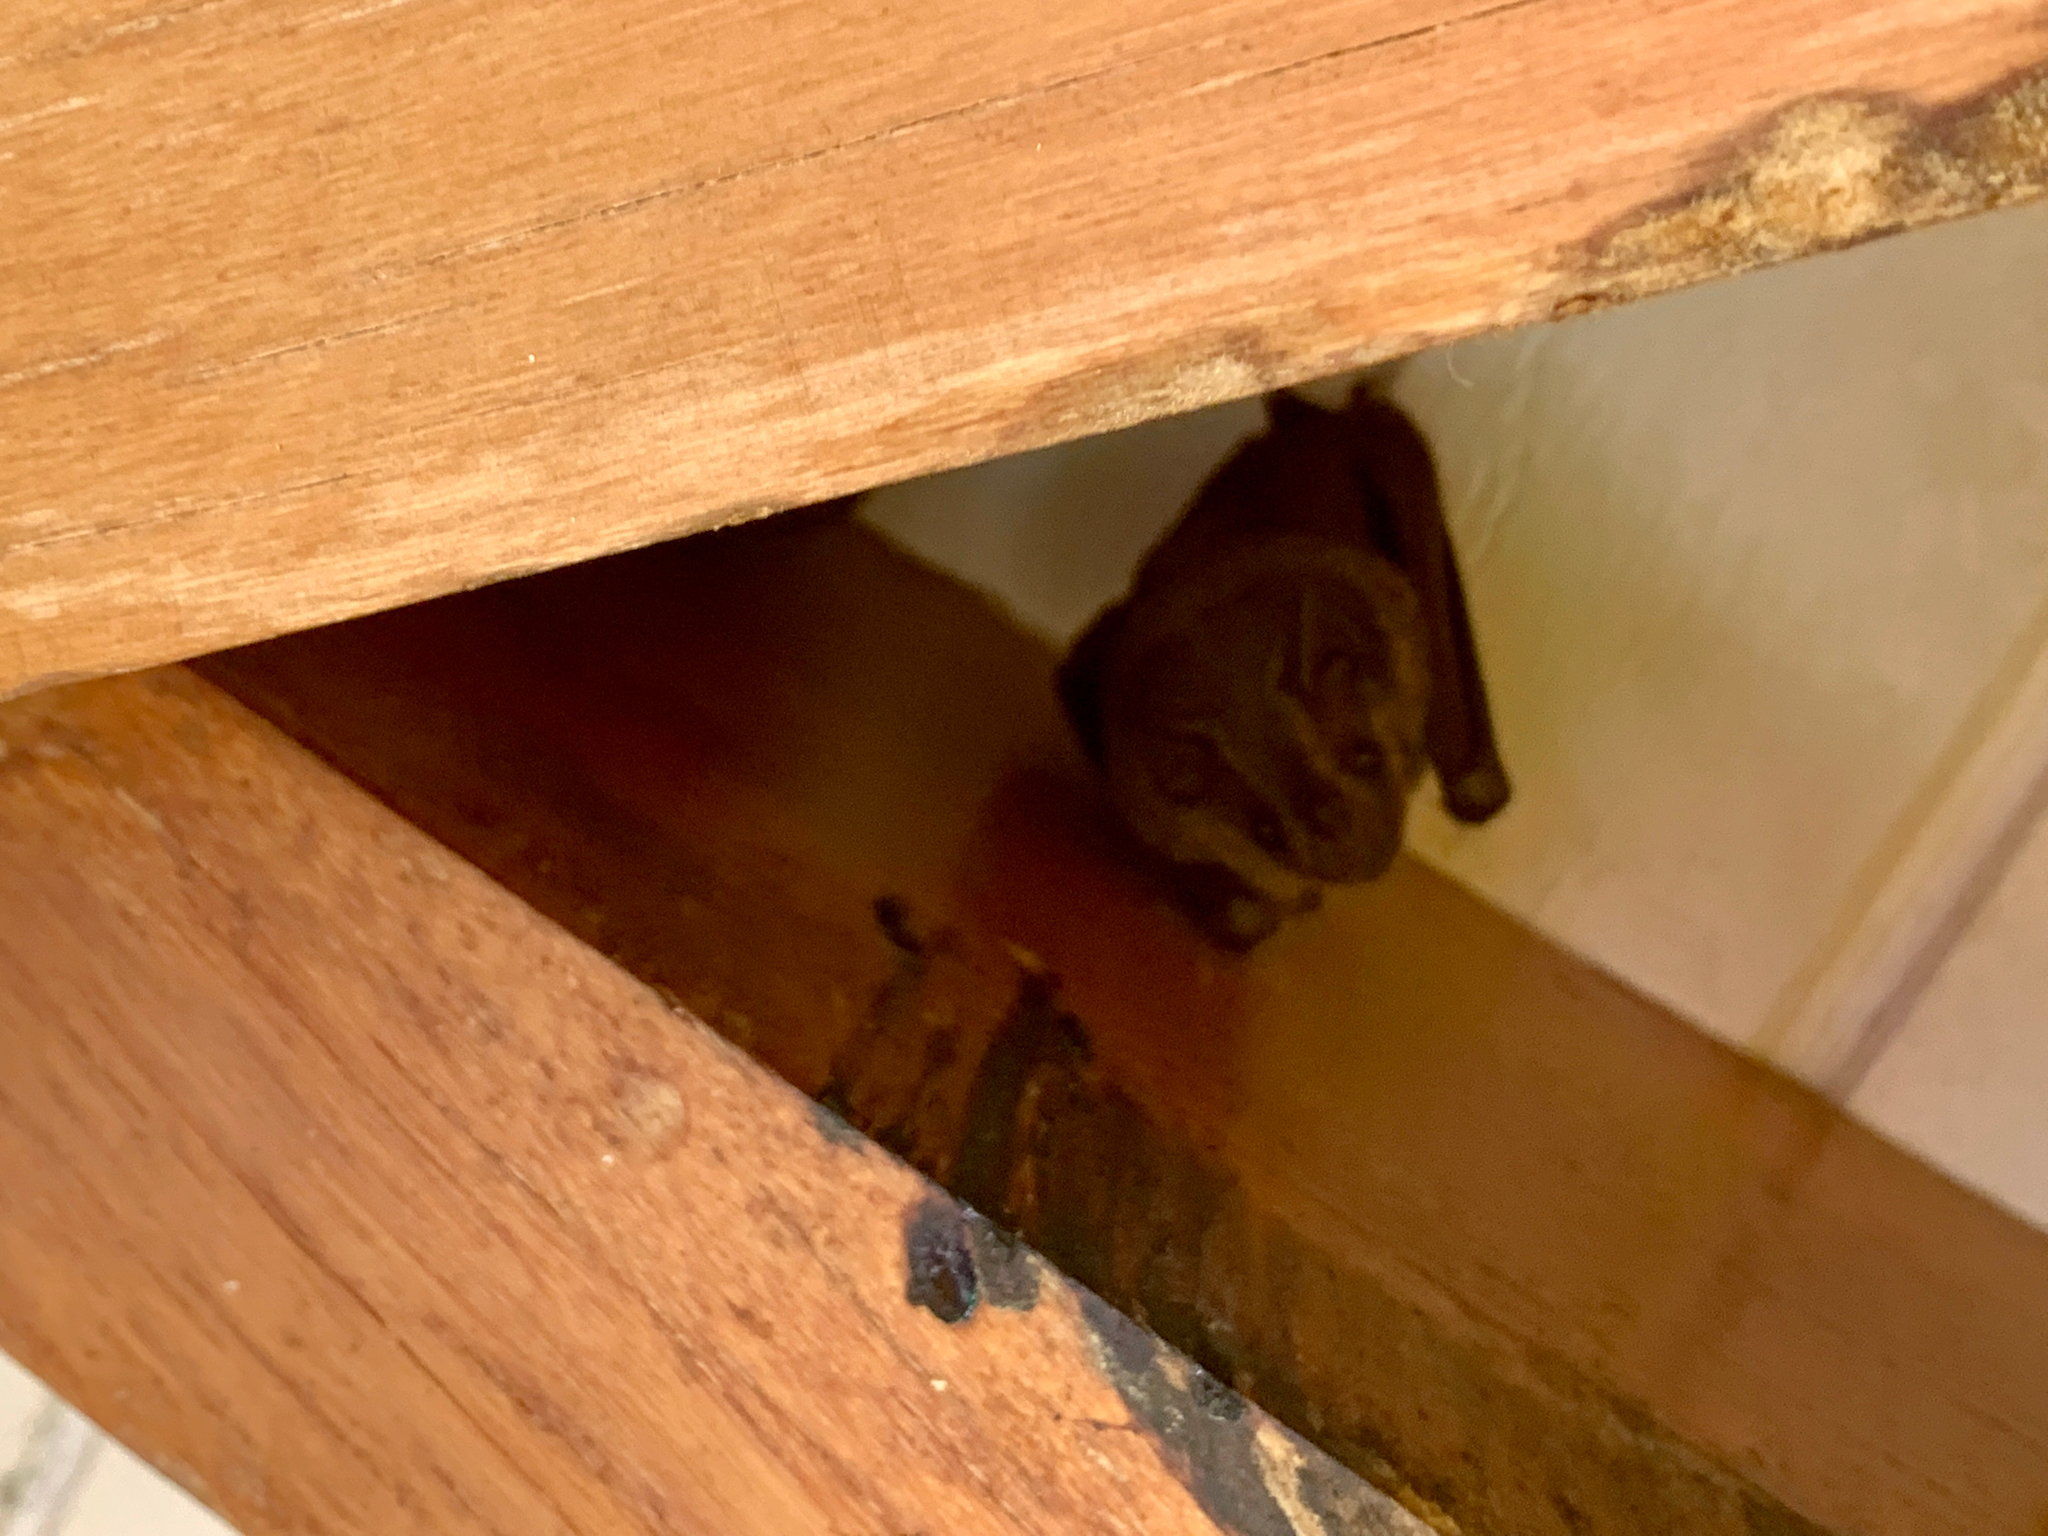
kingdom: Animalia
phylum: Chordata
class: Mammalia
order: Chiroptera
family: Phyllostomidae
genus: Artibeus
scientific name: Artibeus jamaicensis
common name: Jamaican fruit-eating bat
